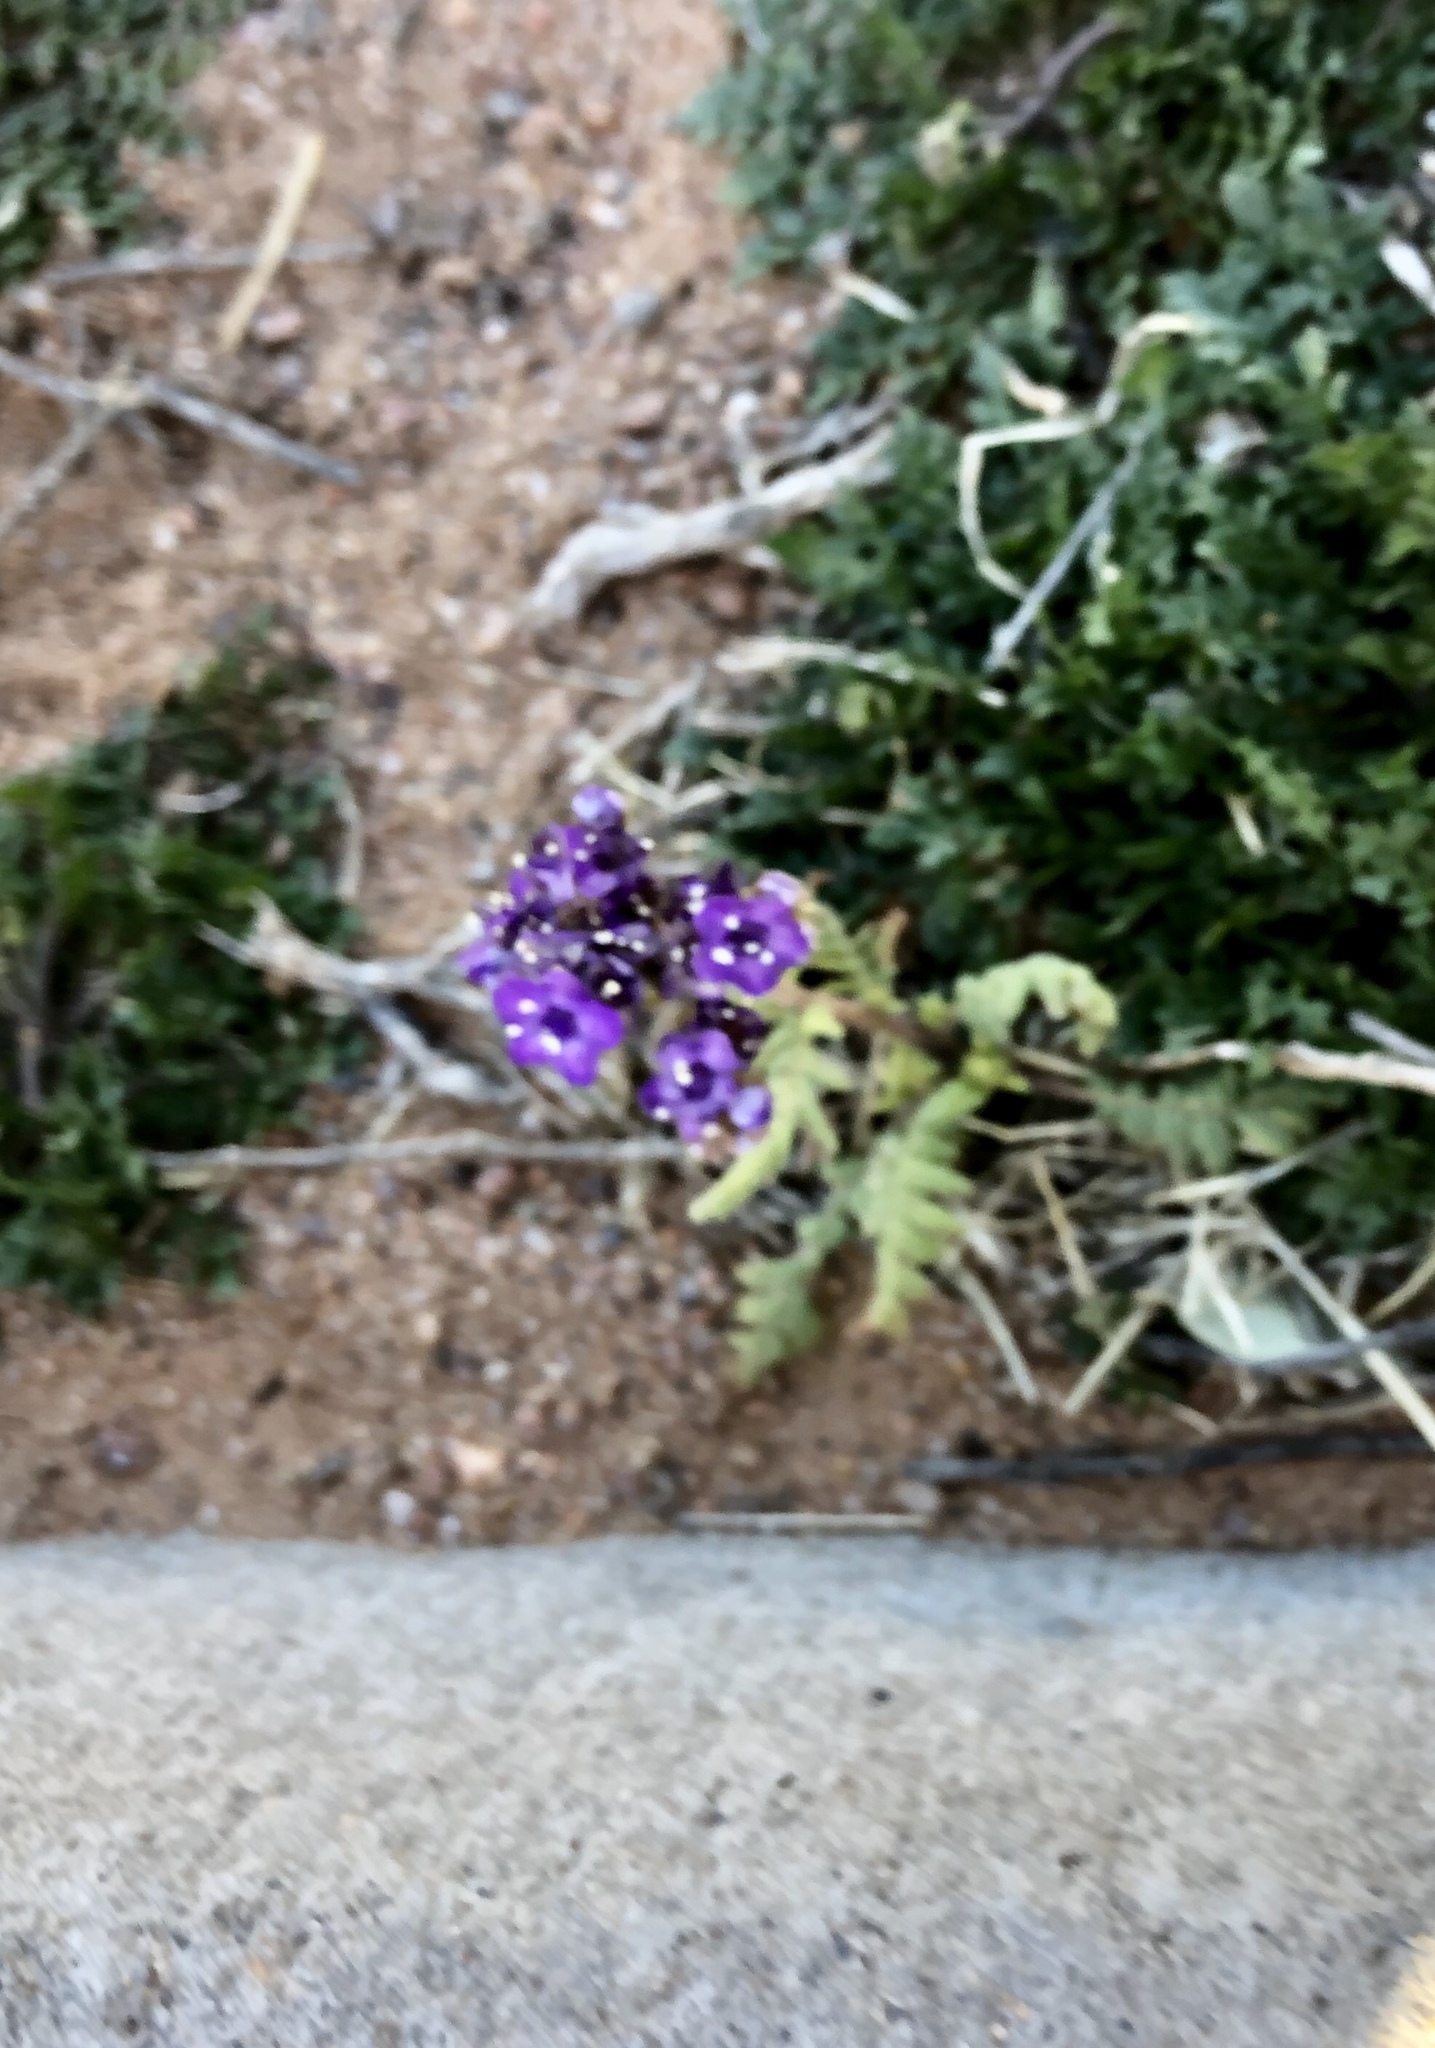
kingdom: Plantae
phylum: Tracheophyta
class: Magnoliopsida
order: Boraginales
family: Hydrophyllaceae
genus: Phacelia
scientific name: Phacelia popei
